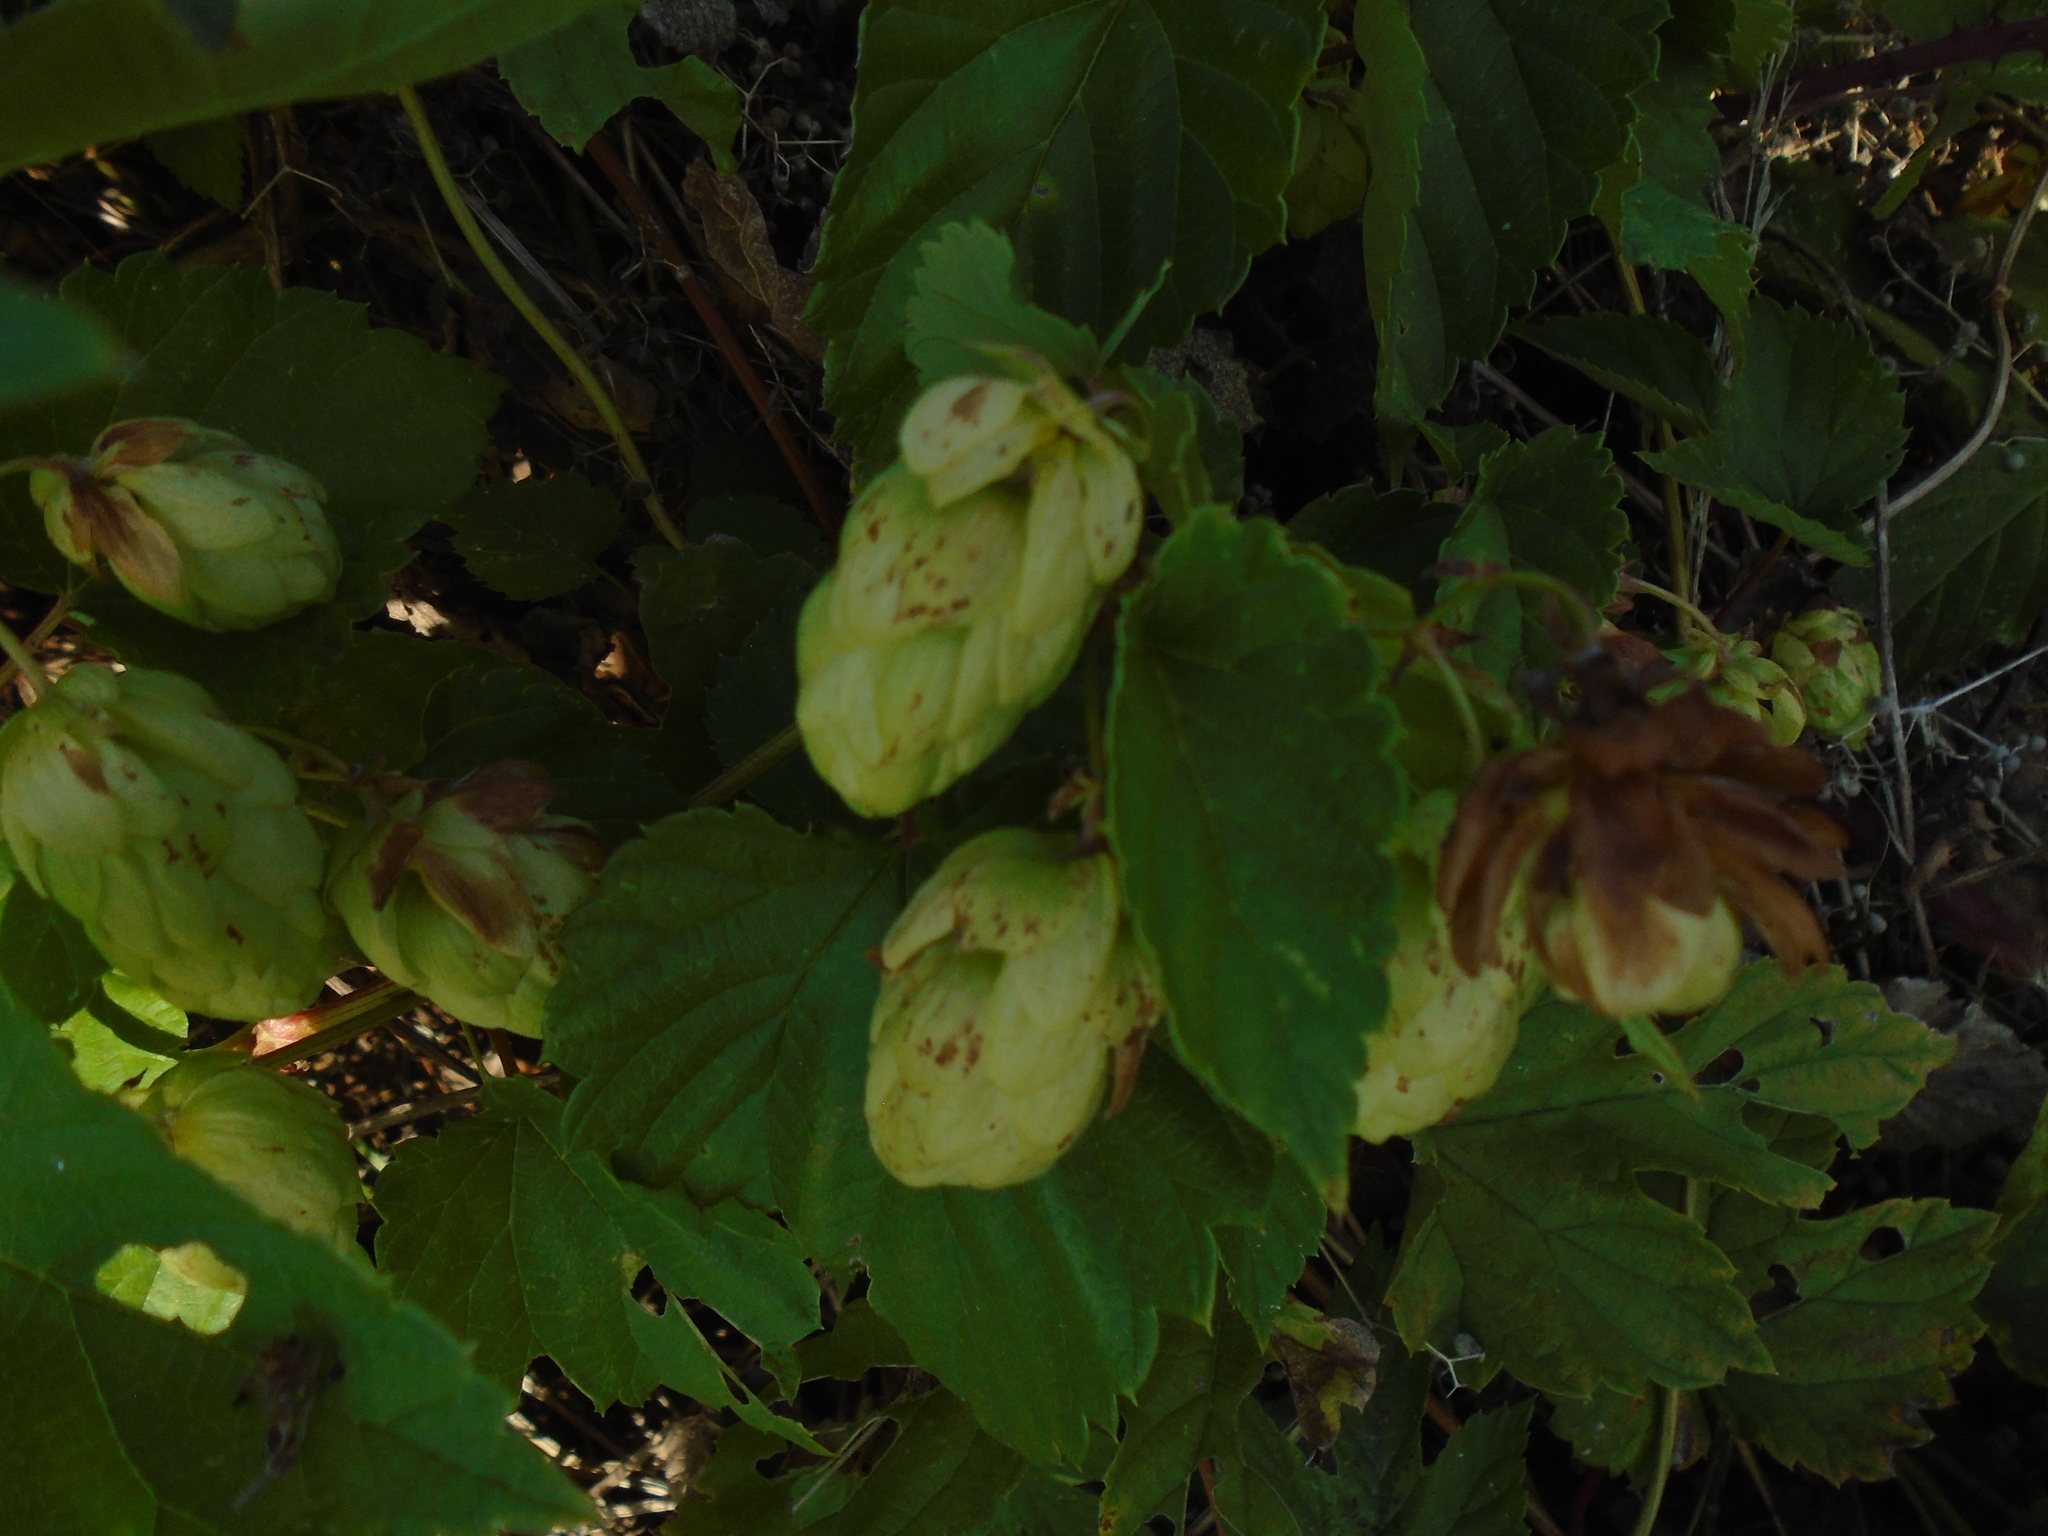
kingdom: Plantae
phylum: Tracheophyta
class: Magnoliopsida
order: Rosales
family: Cannabaceae
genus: Humulus
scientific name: Humulus lupulus
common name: Hop
